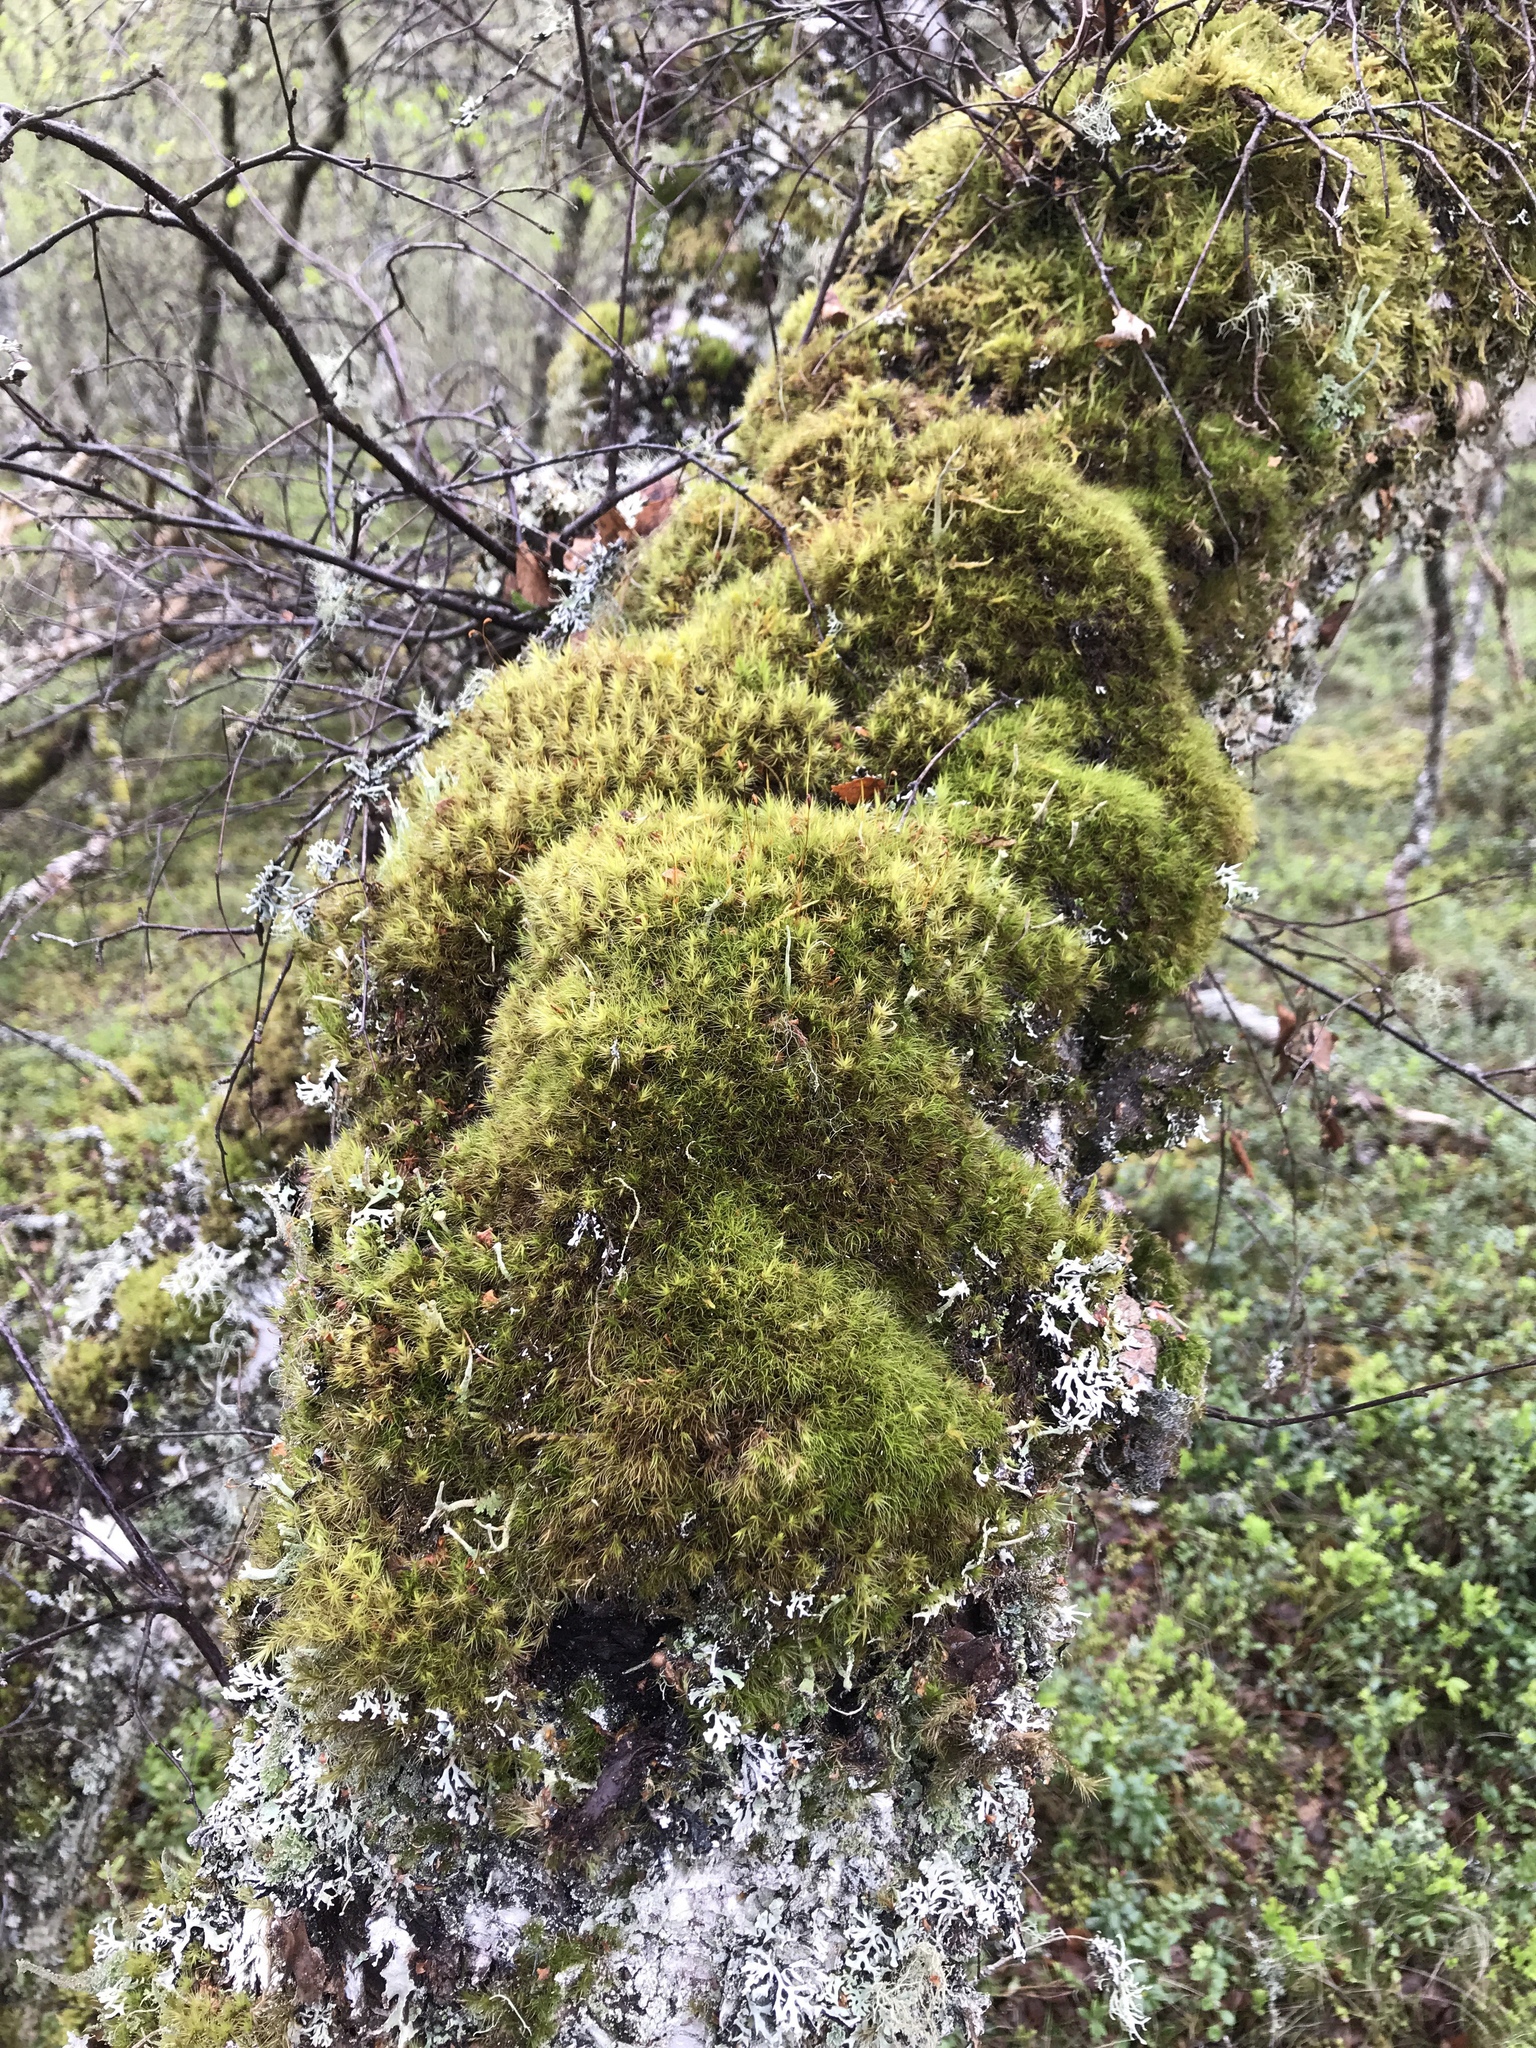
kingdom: Plantae
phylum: Bryophyta
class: Bryopsida
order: Dicranales
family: Dicranaceae
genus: Dicranum
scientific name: Dicranum scoparium
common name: Broom fork-moss
